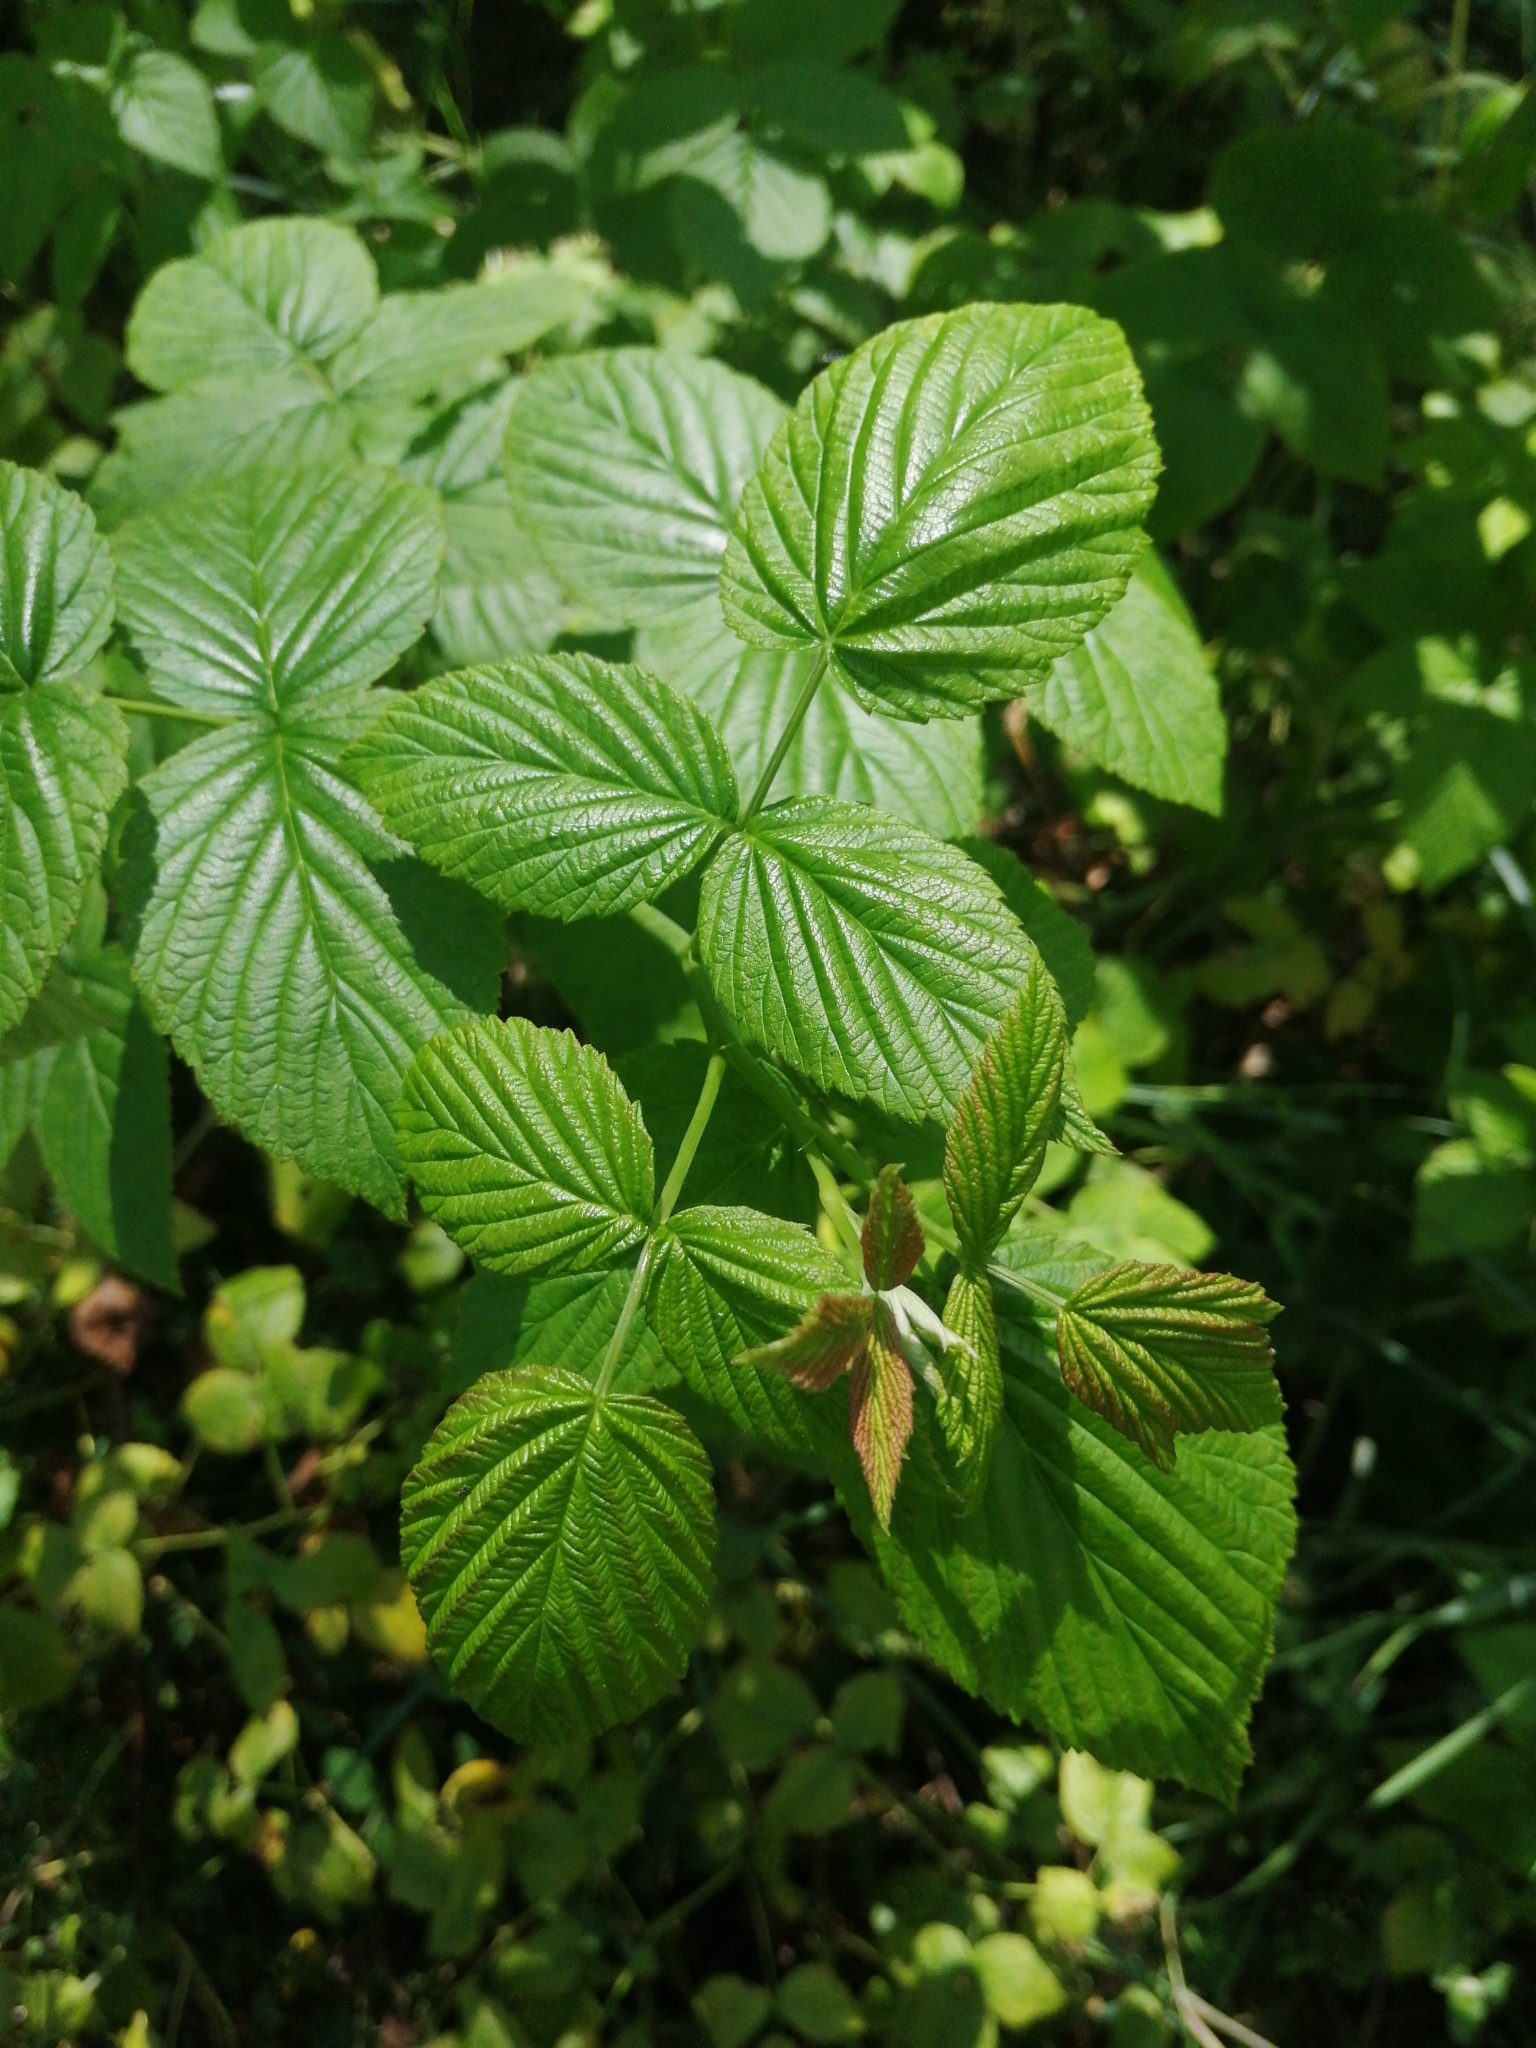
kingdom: Plantae
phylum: Tracheophyta
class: Magnoliopsida
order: Rosales
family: Rosaceae
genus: Rubus
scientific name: Rubus idaeus
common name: Raspberry
